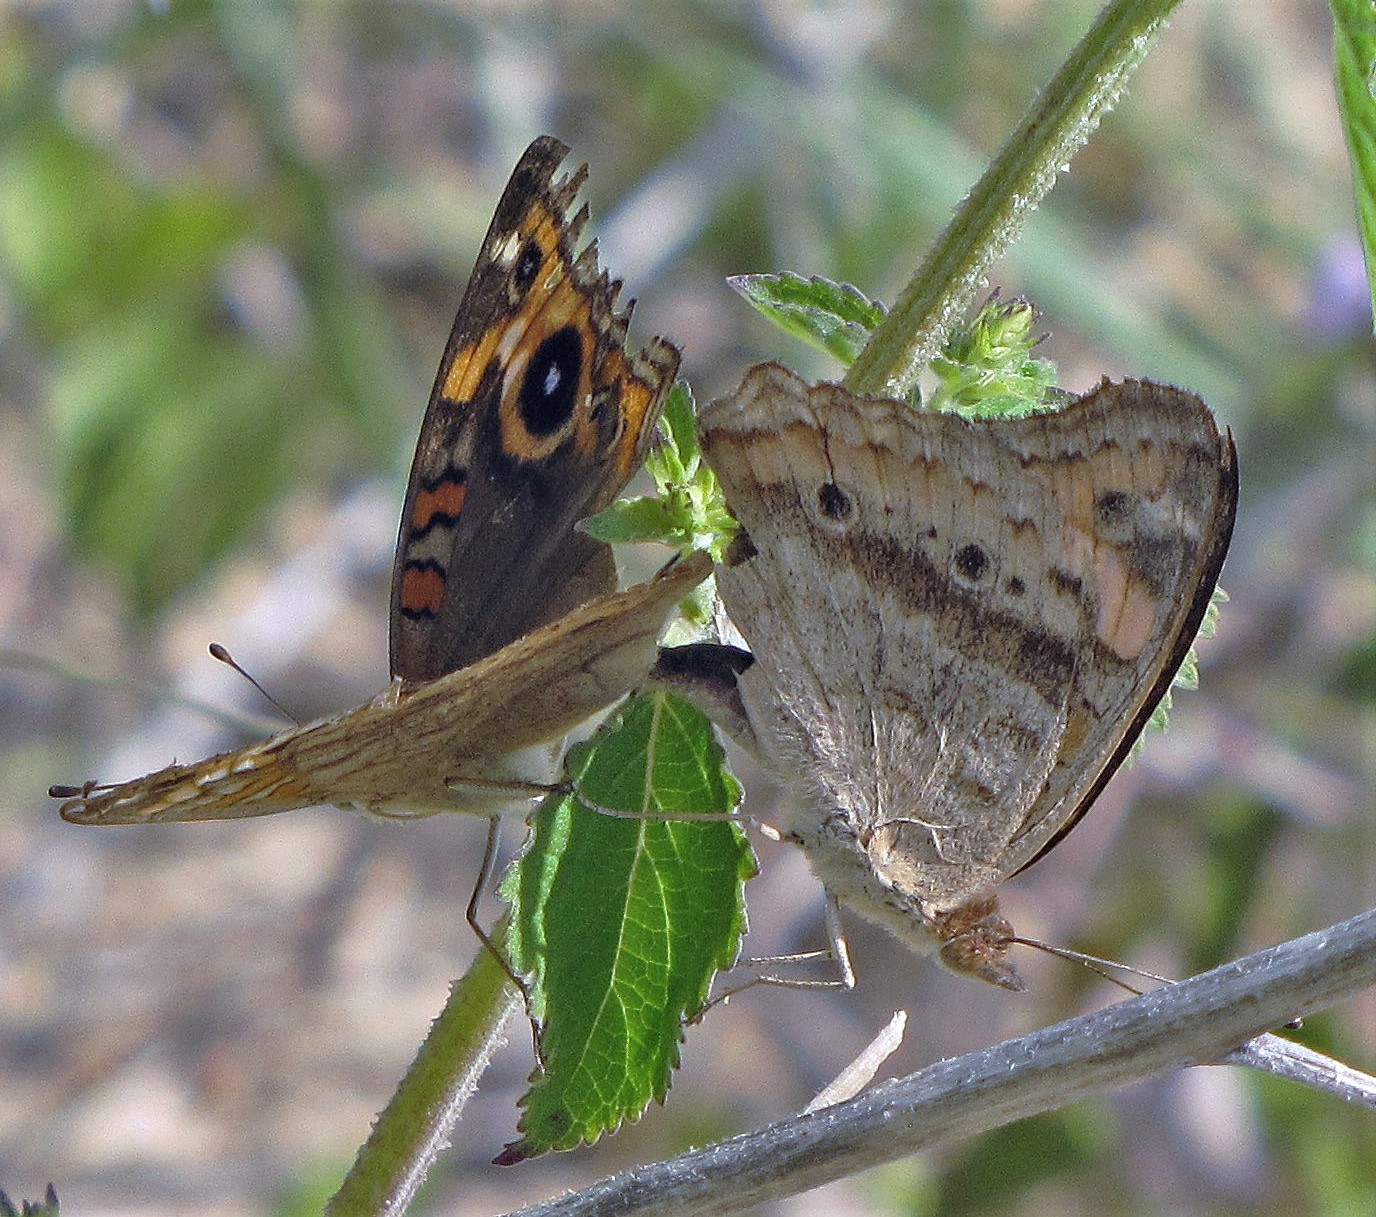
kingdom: Animalia
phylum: Arthropoda
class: Insecta
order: Lepidoptera
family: Nymphalidae
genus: Junonia
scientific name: Junonia lavinia
